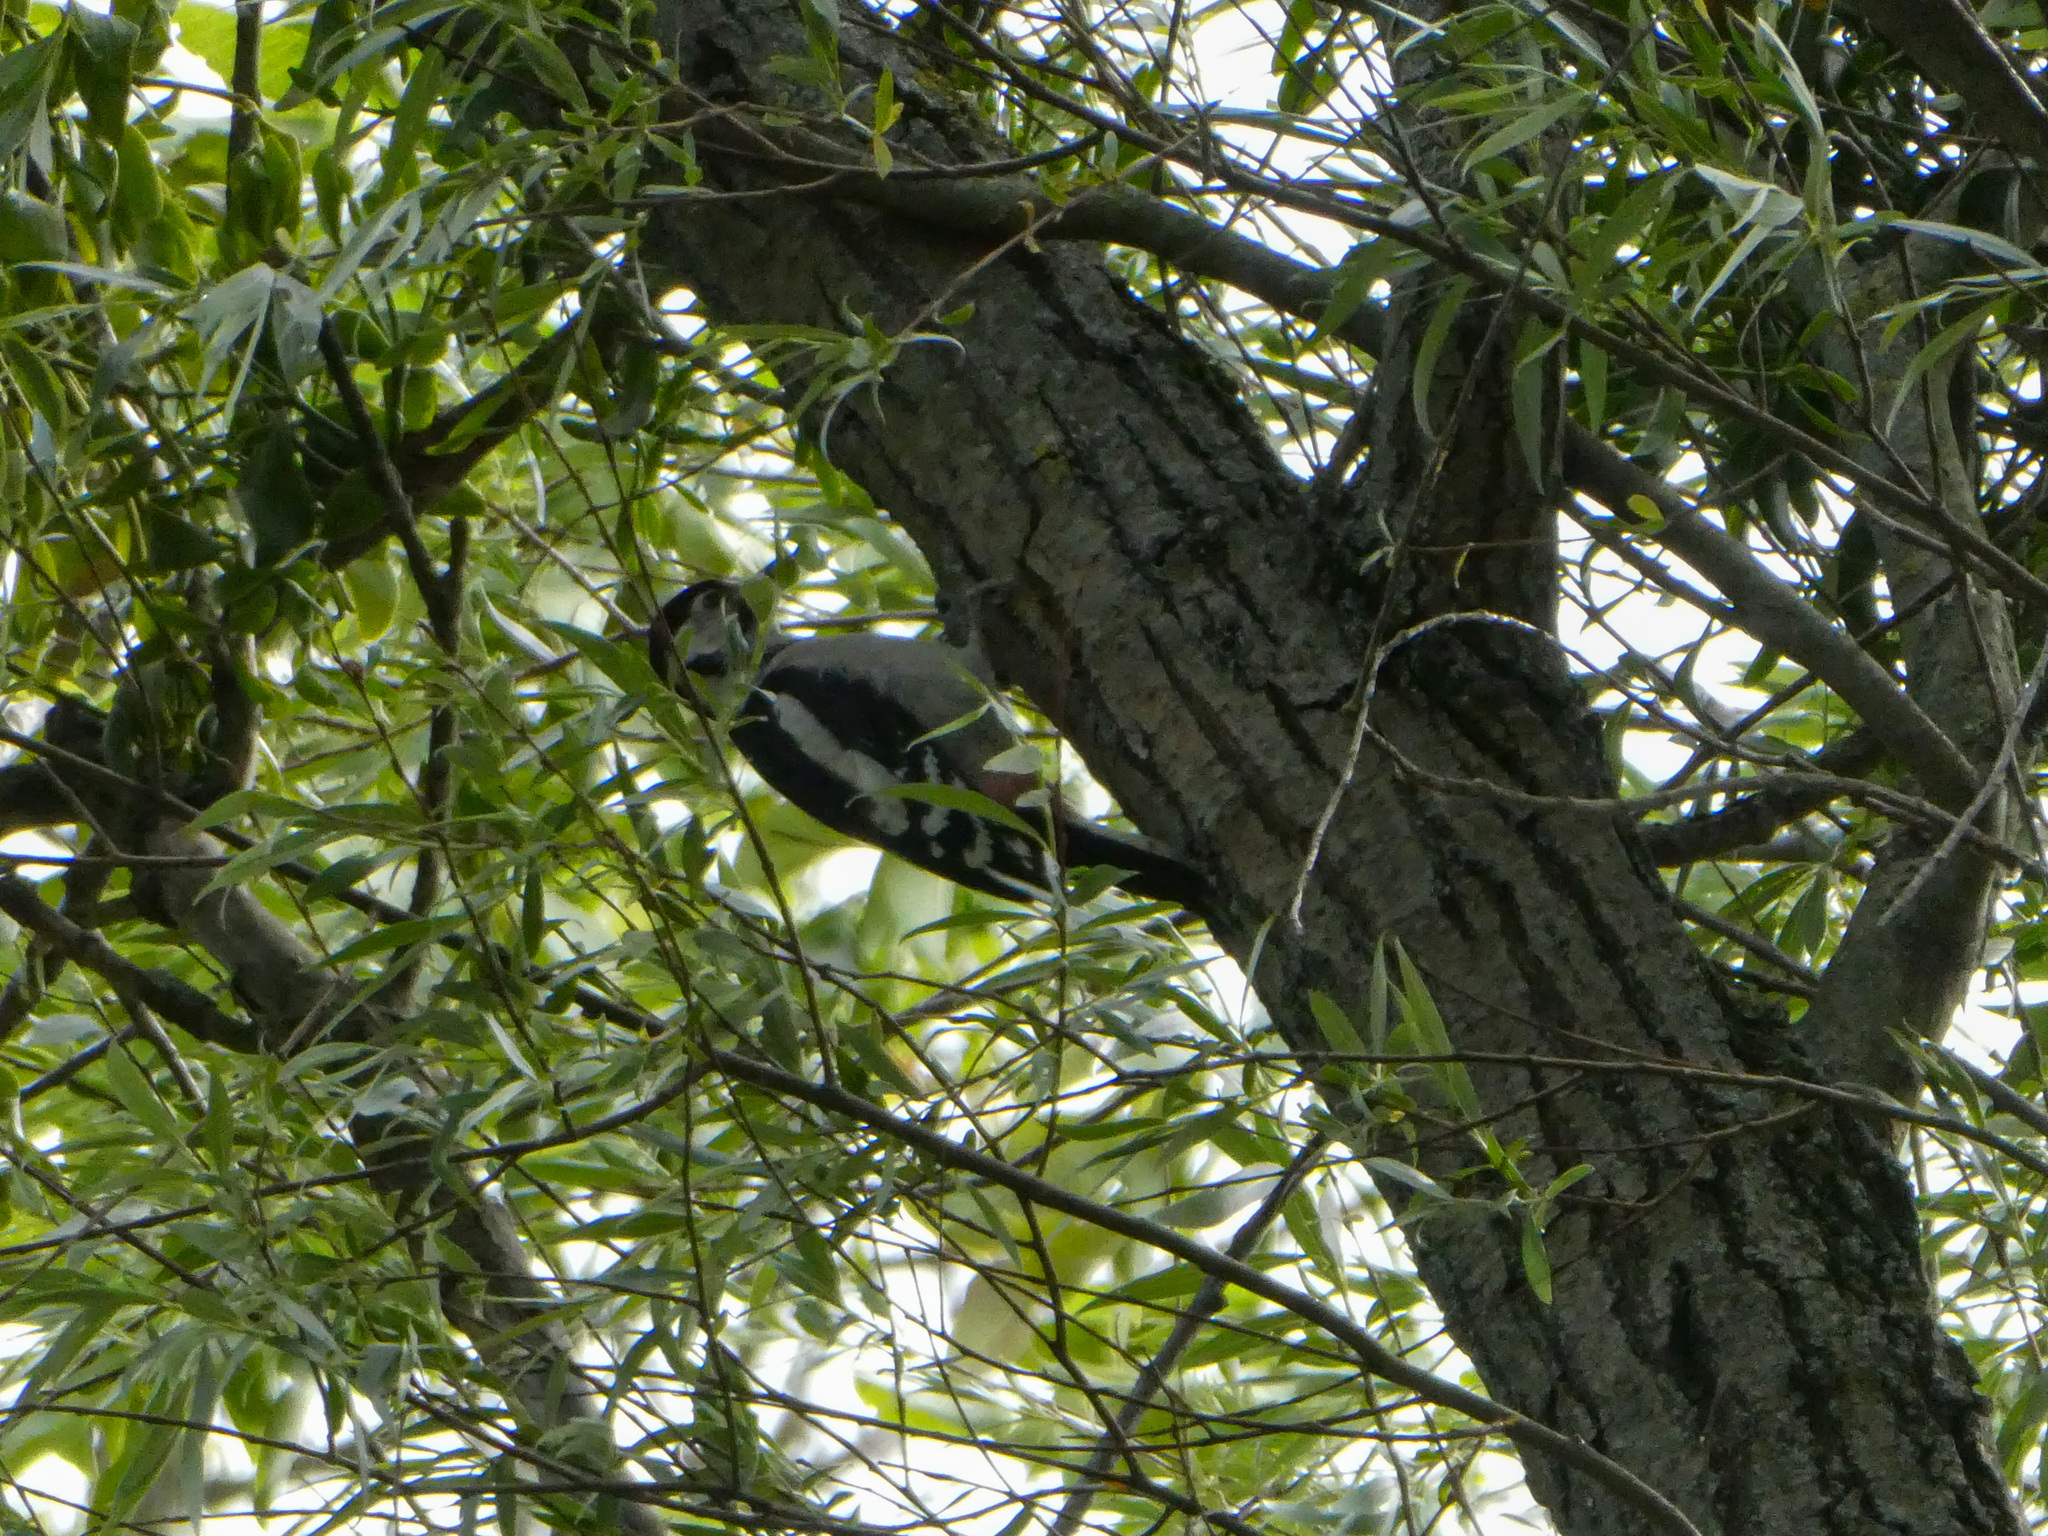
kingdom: Animalia
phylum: Chordata
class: Aves
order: Piciformes
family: Picidae
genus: Dendrocopos
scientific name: Dendrocopos syriacus
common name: Syrian woodpecker
